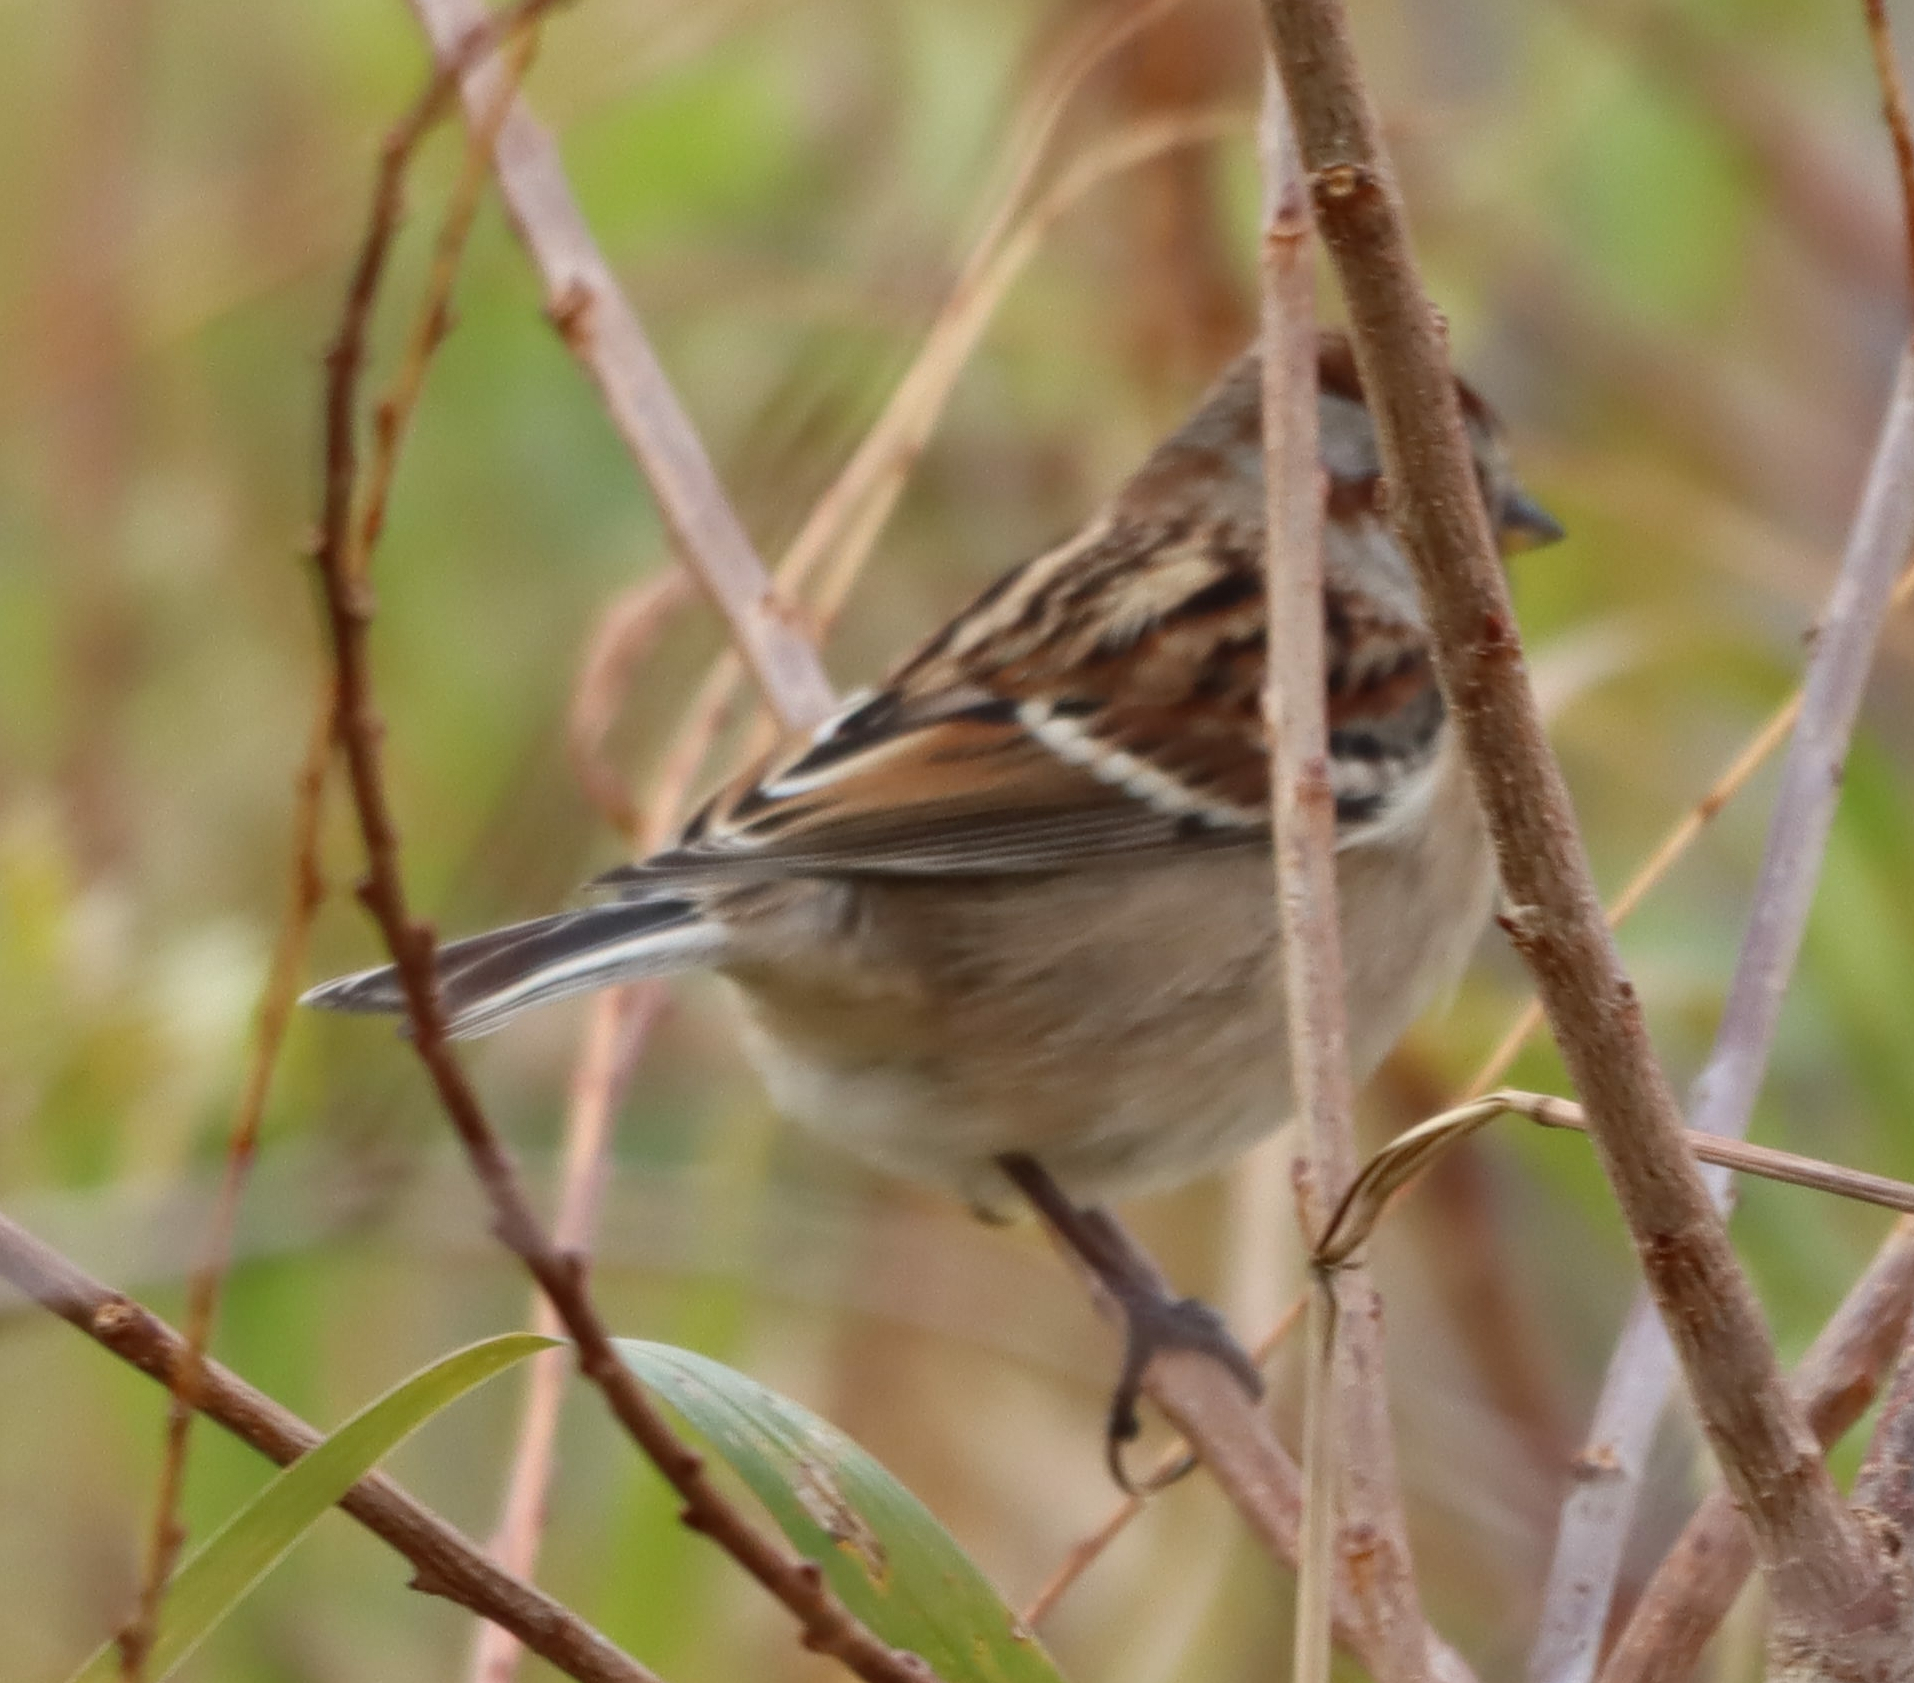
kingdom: Animalia
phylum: Chordata
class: Aves
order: Passeriformes
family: Passerellidae
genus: Spizelloides
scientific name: Spizelloides arborea
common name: American tree sparrow
